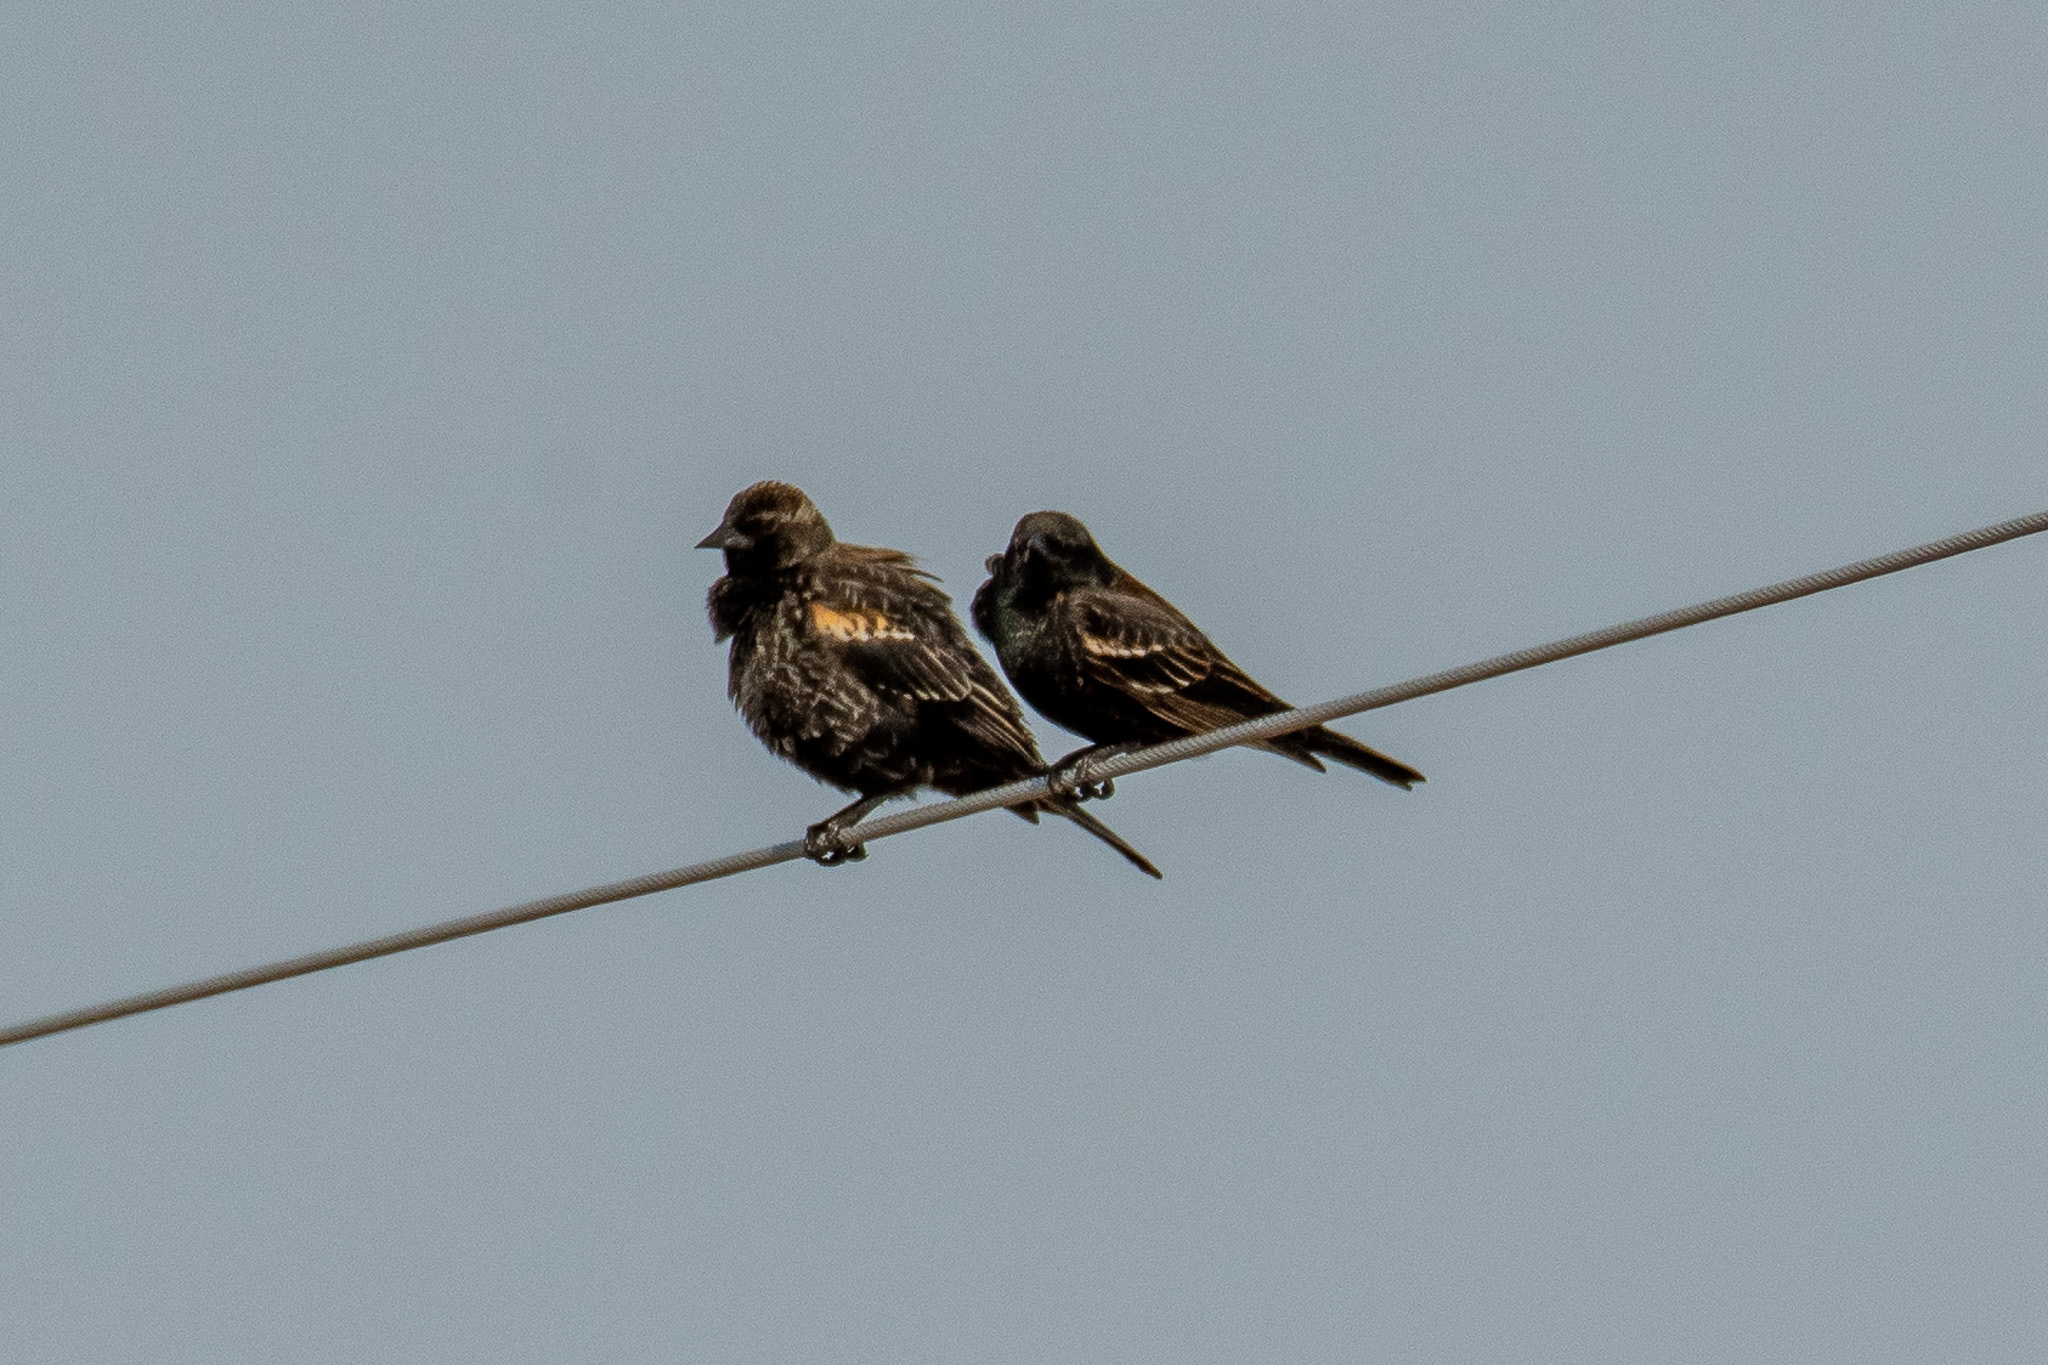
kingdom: Animalia
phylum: Chordata
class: Aves
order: Passeriformes
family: Icteridae
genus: Agelaius
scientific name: Agelaius phoeniceus
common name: Red-winged blackbird
